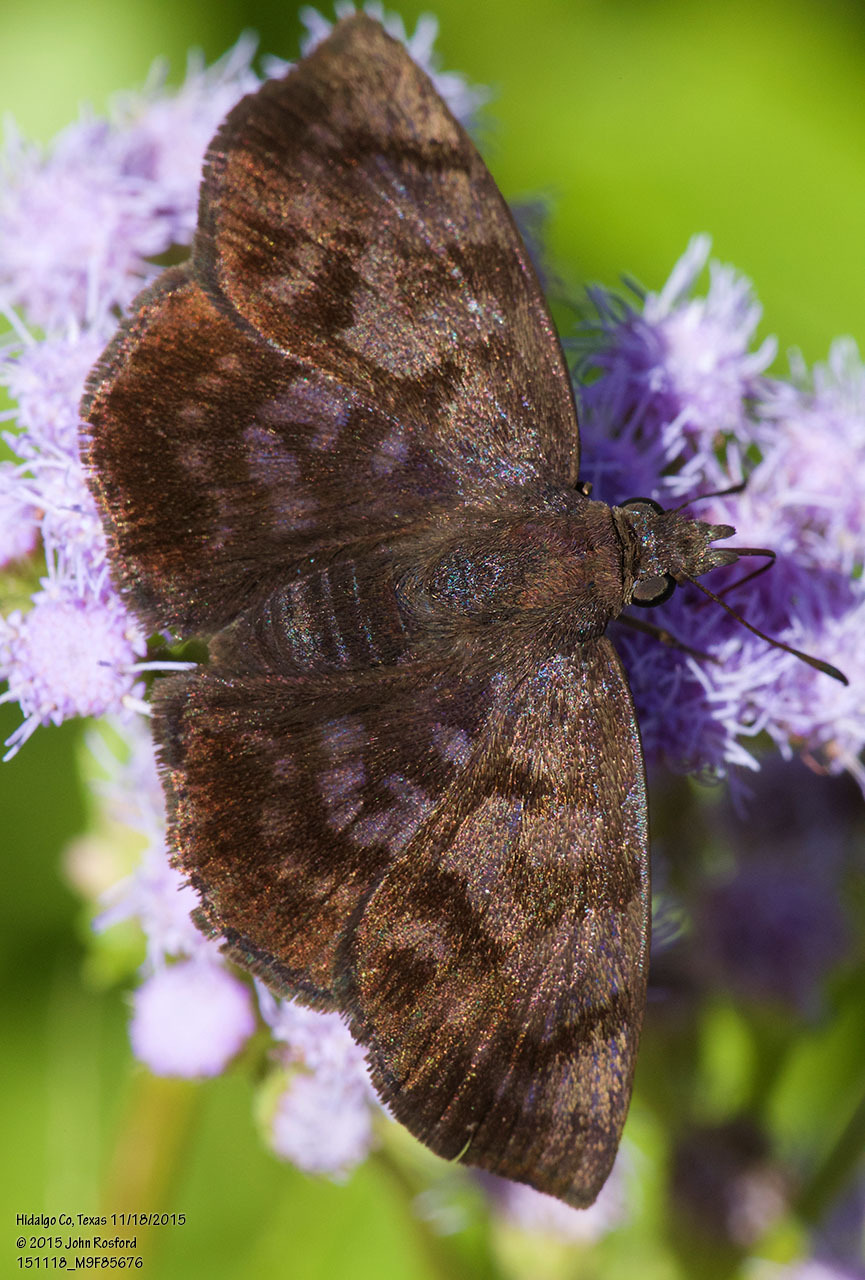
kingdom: Animalia
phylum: Arthropoda
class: Insecta
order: Lepidoptera
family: Hesperiidae
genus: Pellicia
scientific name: Pellicia costimacula
